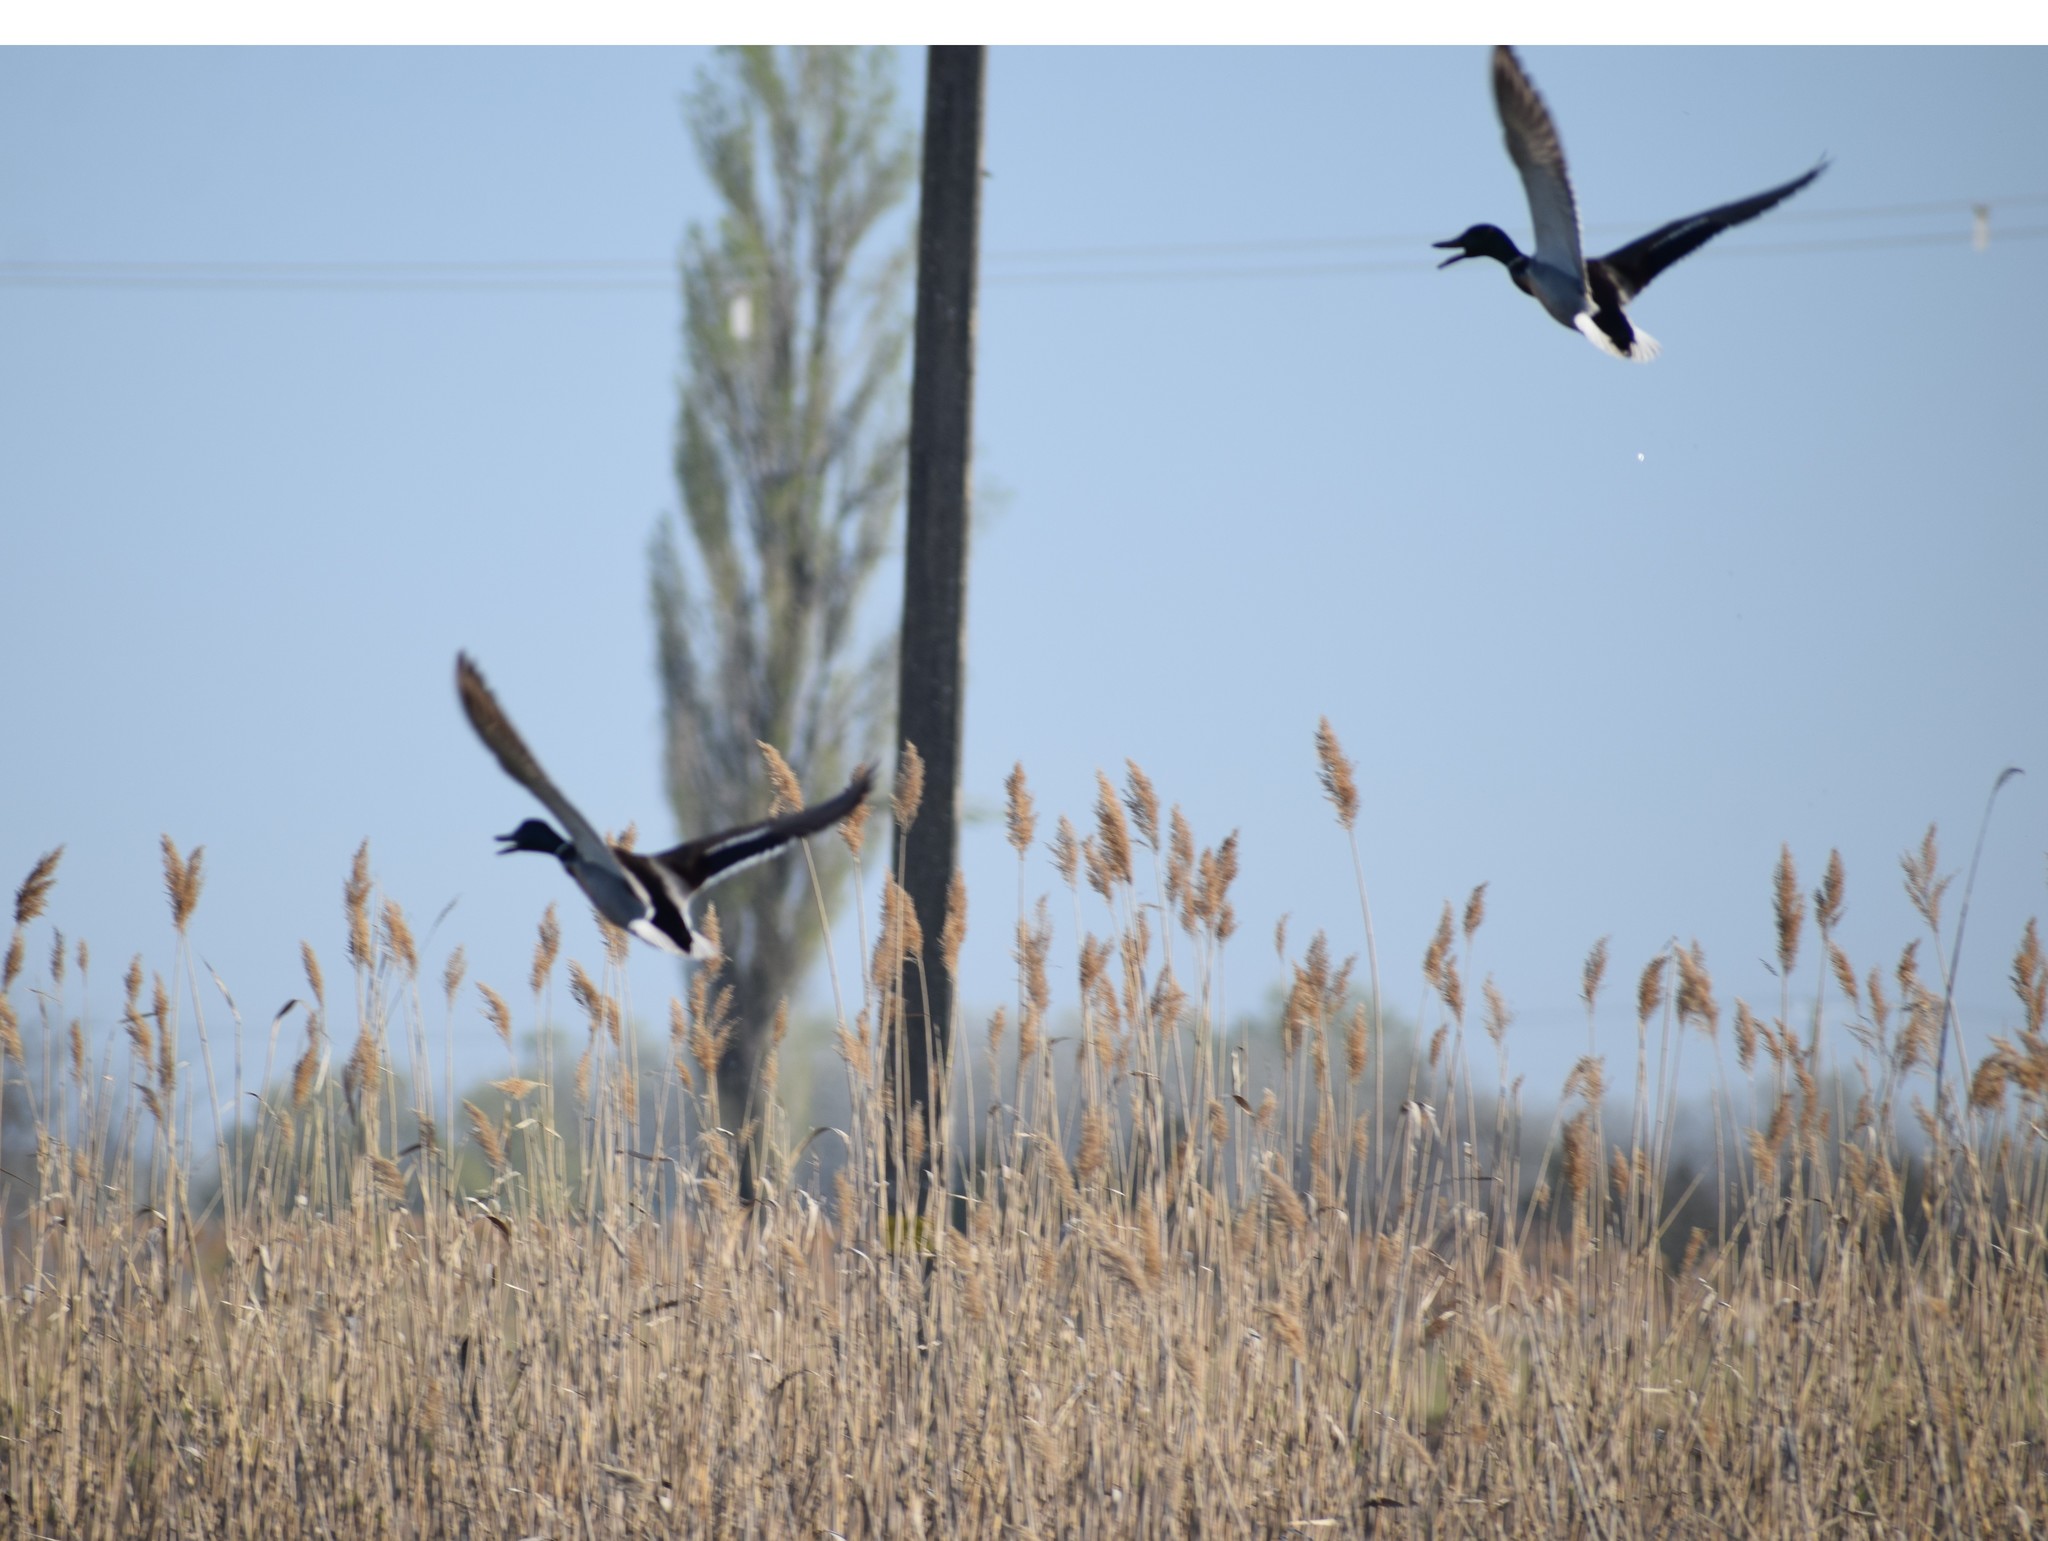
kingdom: Animalia
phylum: Chordata
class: Aves
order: Anseriformes
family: Anatidae
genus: Anas
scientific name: Anas platyrhynchos
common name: Mallard
